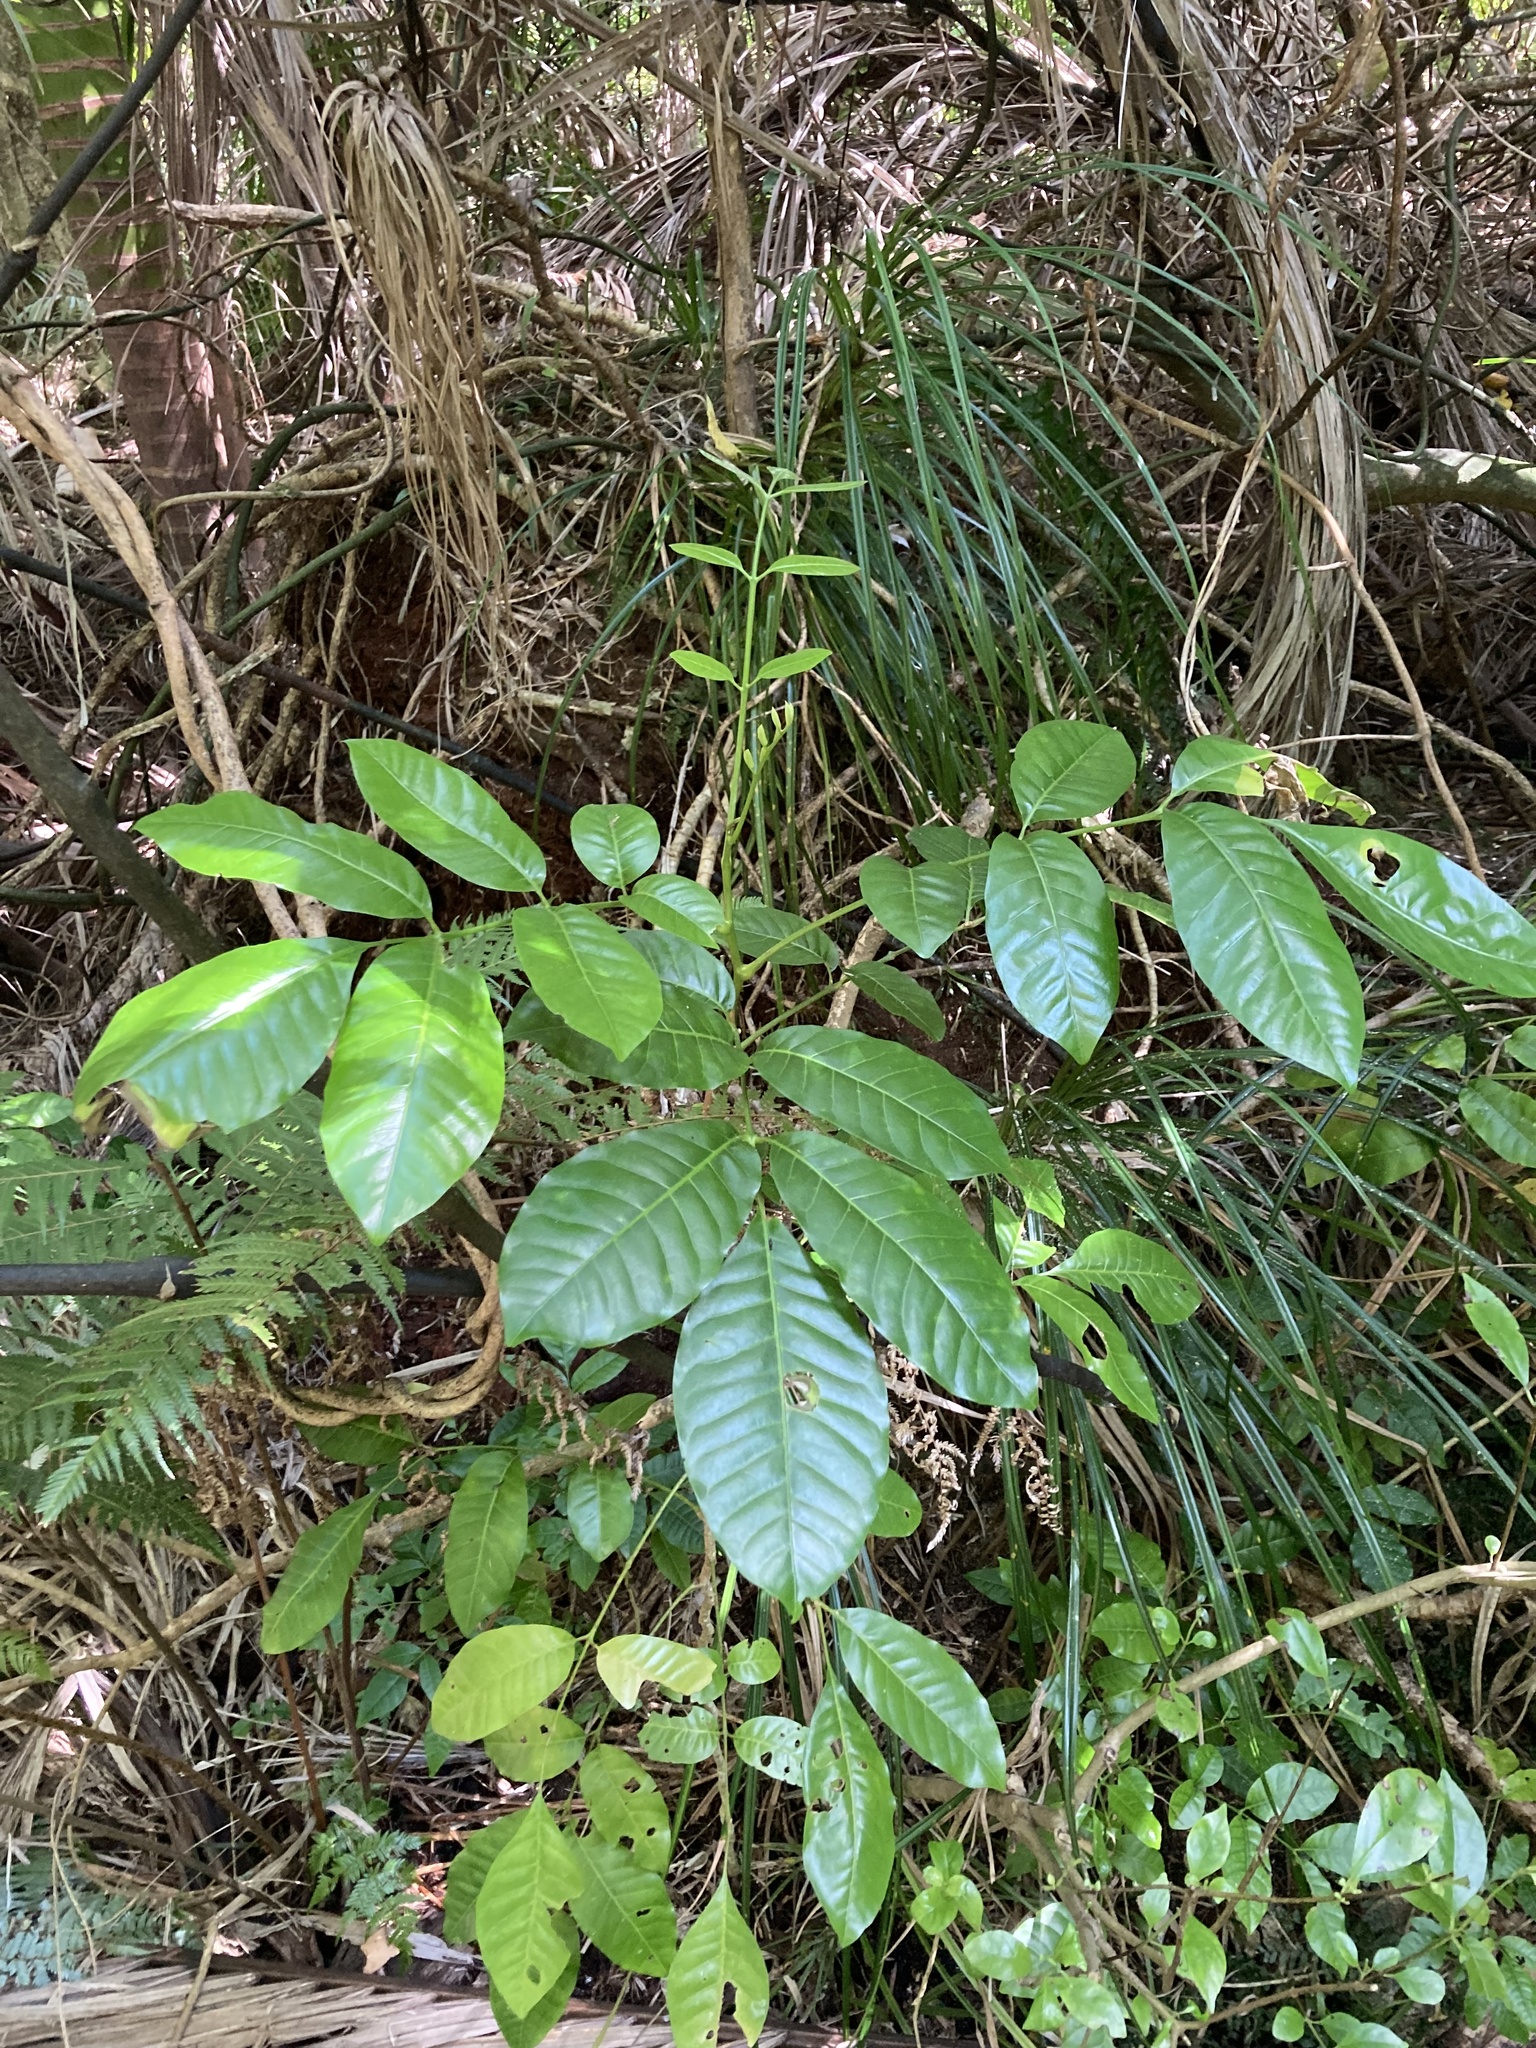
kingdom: Plantae
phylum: Tracheophyta
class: Magnoliopsida
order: Sapindales
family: Meliaceae
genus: Didymocheton
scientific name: Didymocheton spectabilis
